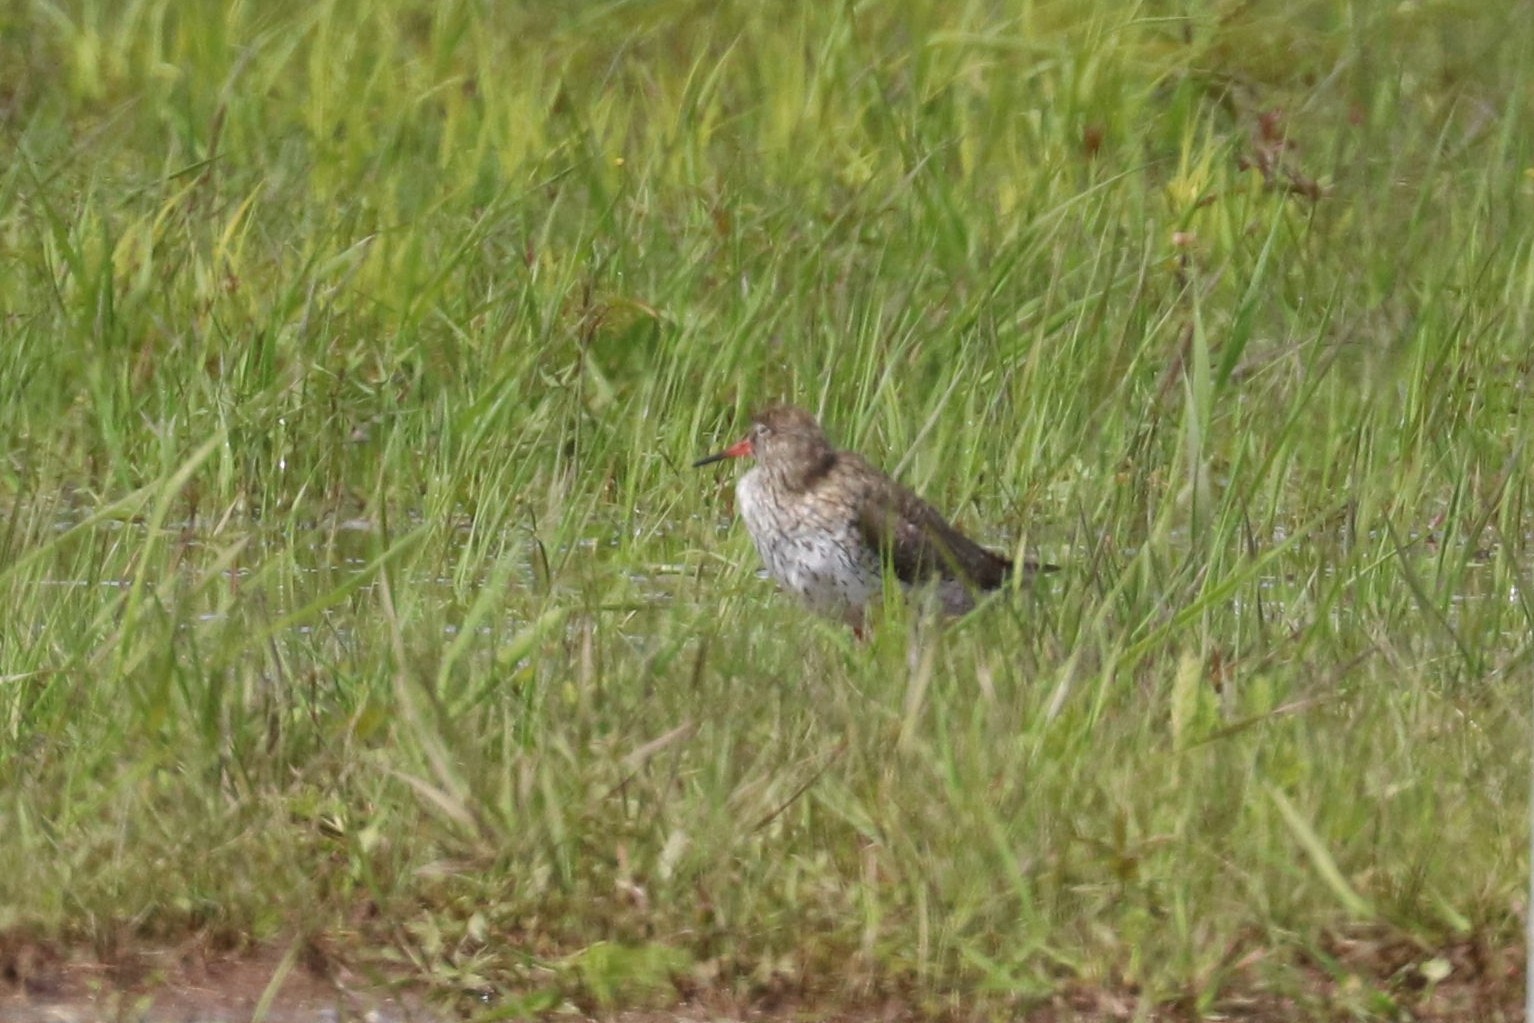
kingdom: Animalia
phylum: Chordata
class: Aves
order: Charadriiformes
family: Scolopacidae
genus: Tringa
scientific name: Tringa totanus
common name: Common redshank
